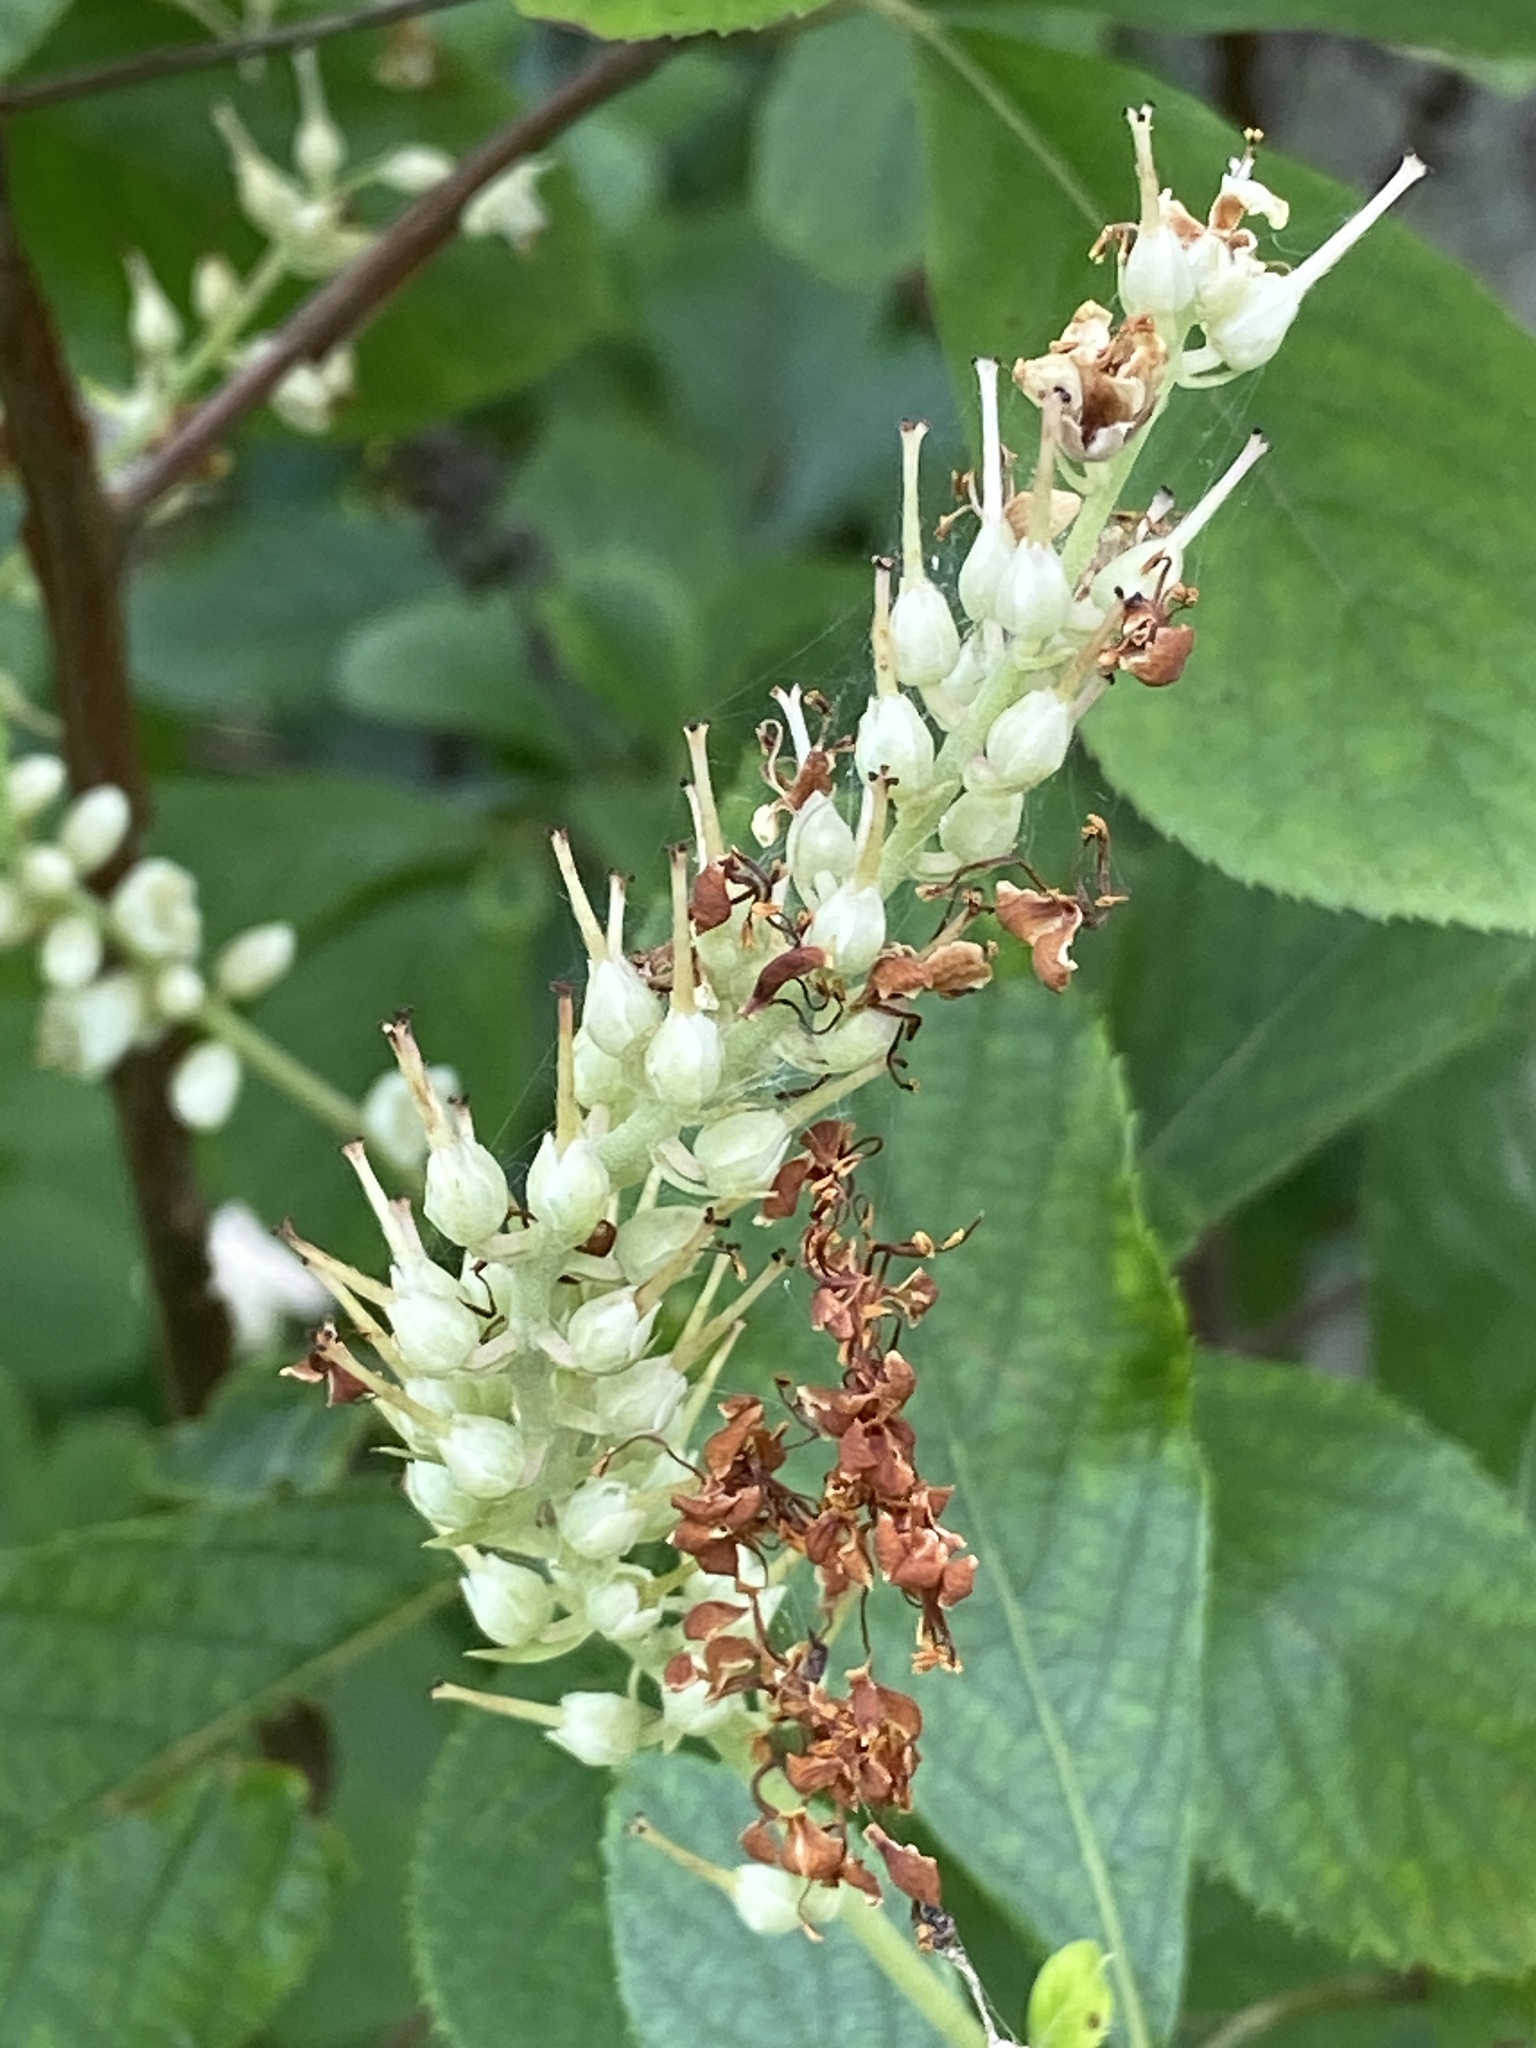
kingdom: Plantae
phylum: Tracheophyta
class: Magnoliopsida
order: Ericales
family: Clethraceae
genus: Clethra
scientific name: Clethra alnifolia
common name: Sweet pepperbush
